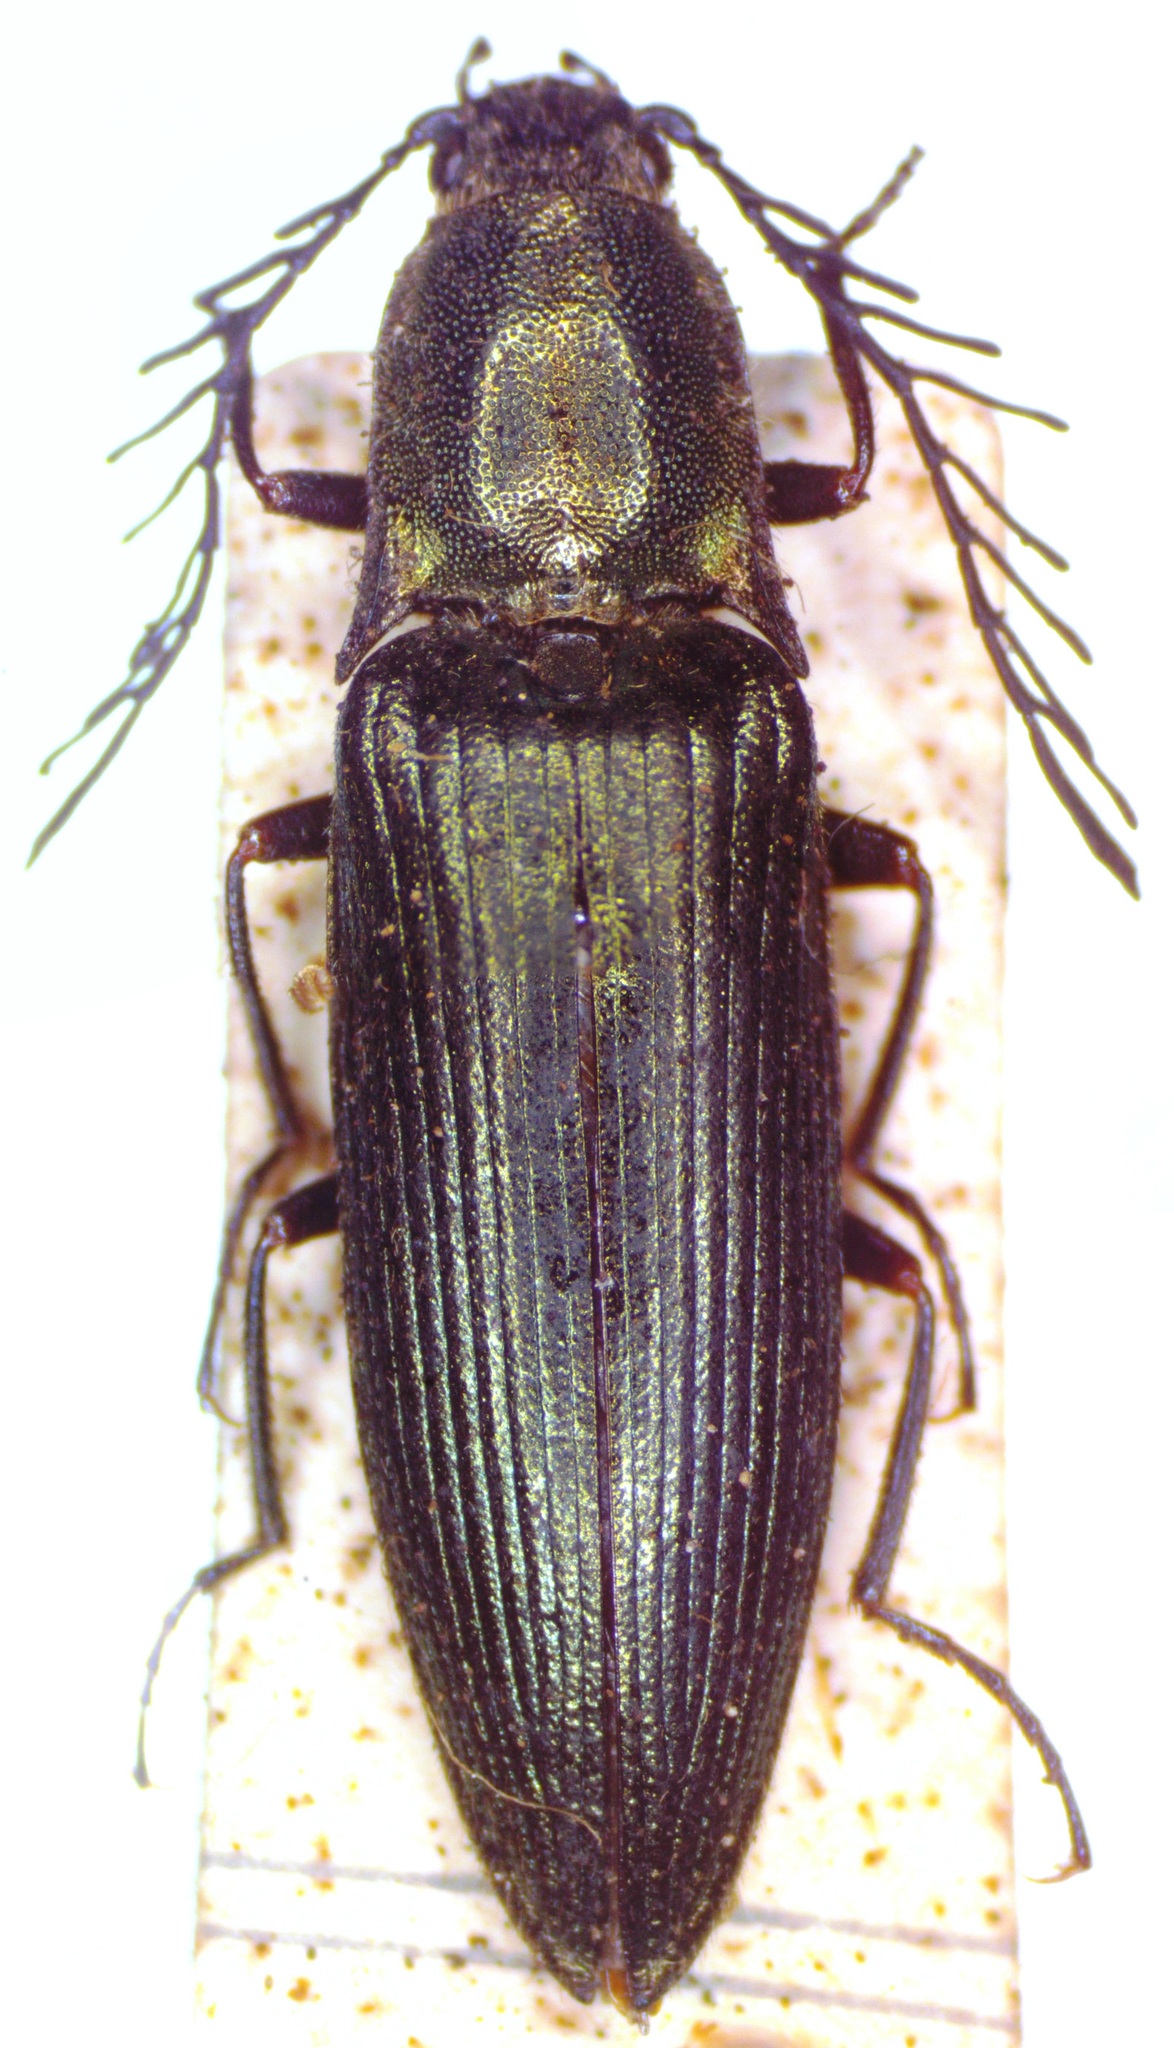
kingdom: Animalia
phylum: Arthropoda
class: Insecta
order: Coleoptera
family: Elateridae
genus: Ctenicera
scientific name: Ctenicera pectinicornis
